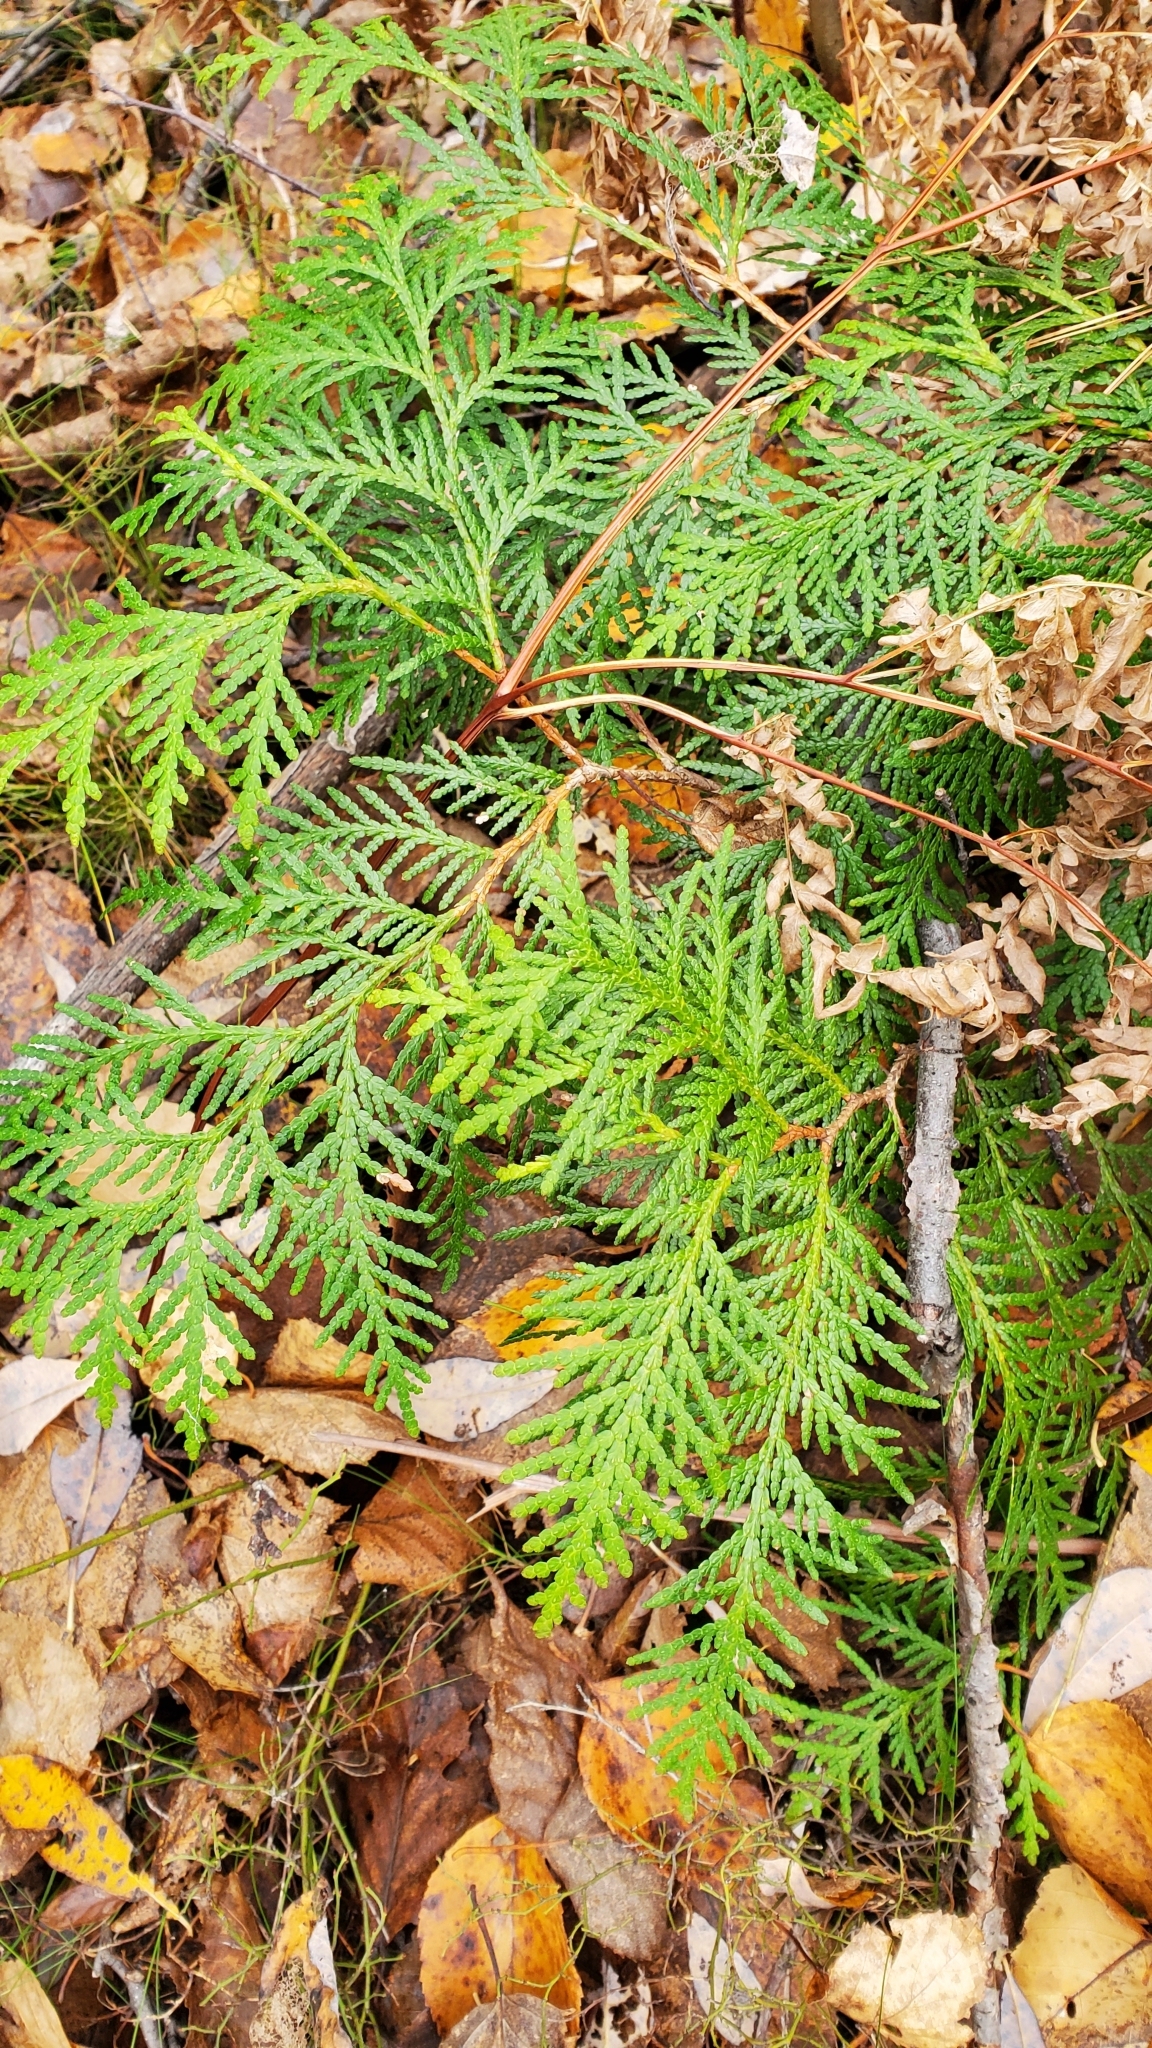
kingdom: Plantae
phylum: Tracheophyta
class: Pinopsida
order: Pinales
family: Cupressaceae
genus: Thuja
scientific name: Thuja occidentalis
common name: Northern white-cedar
